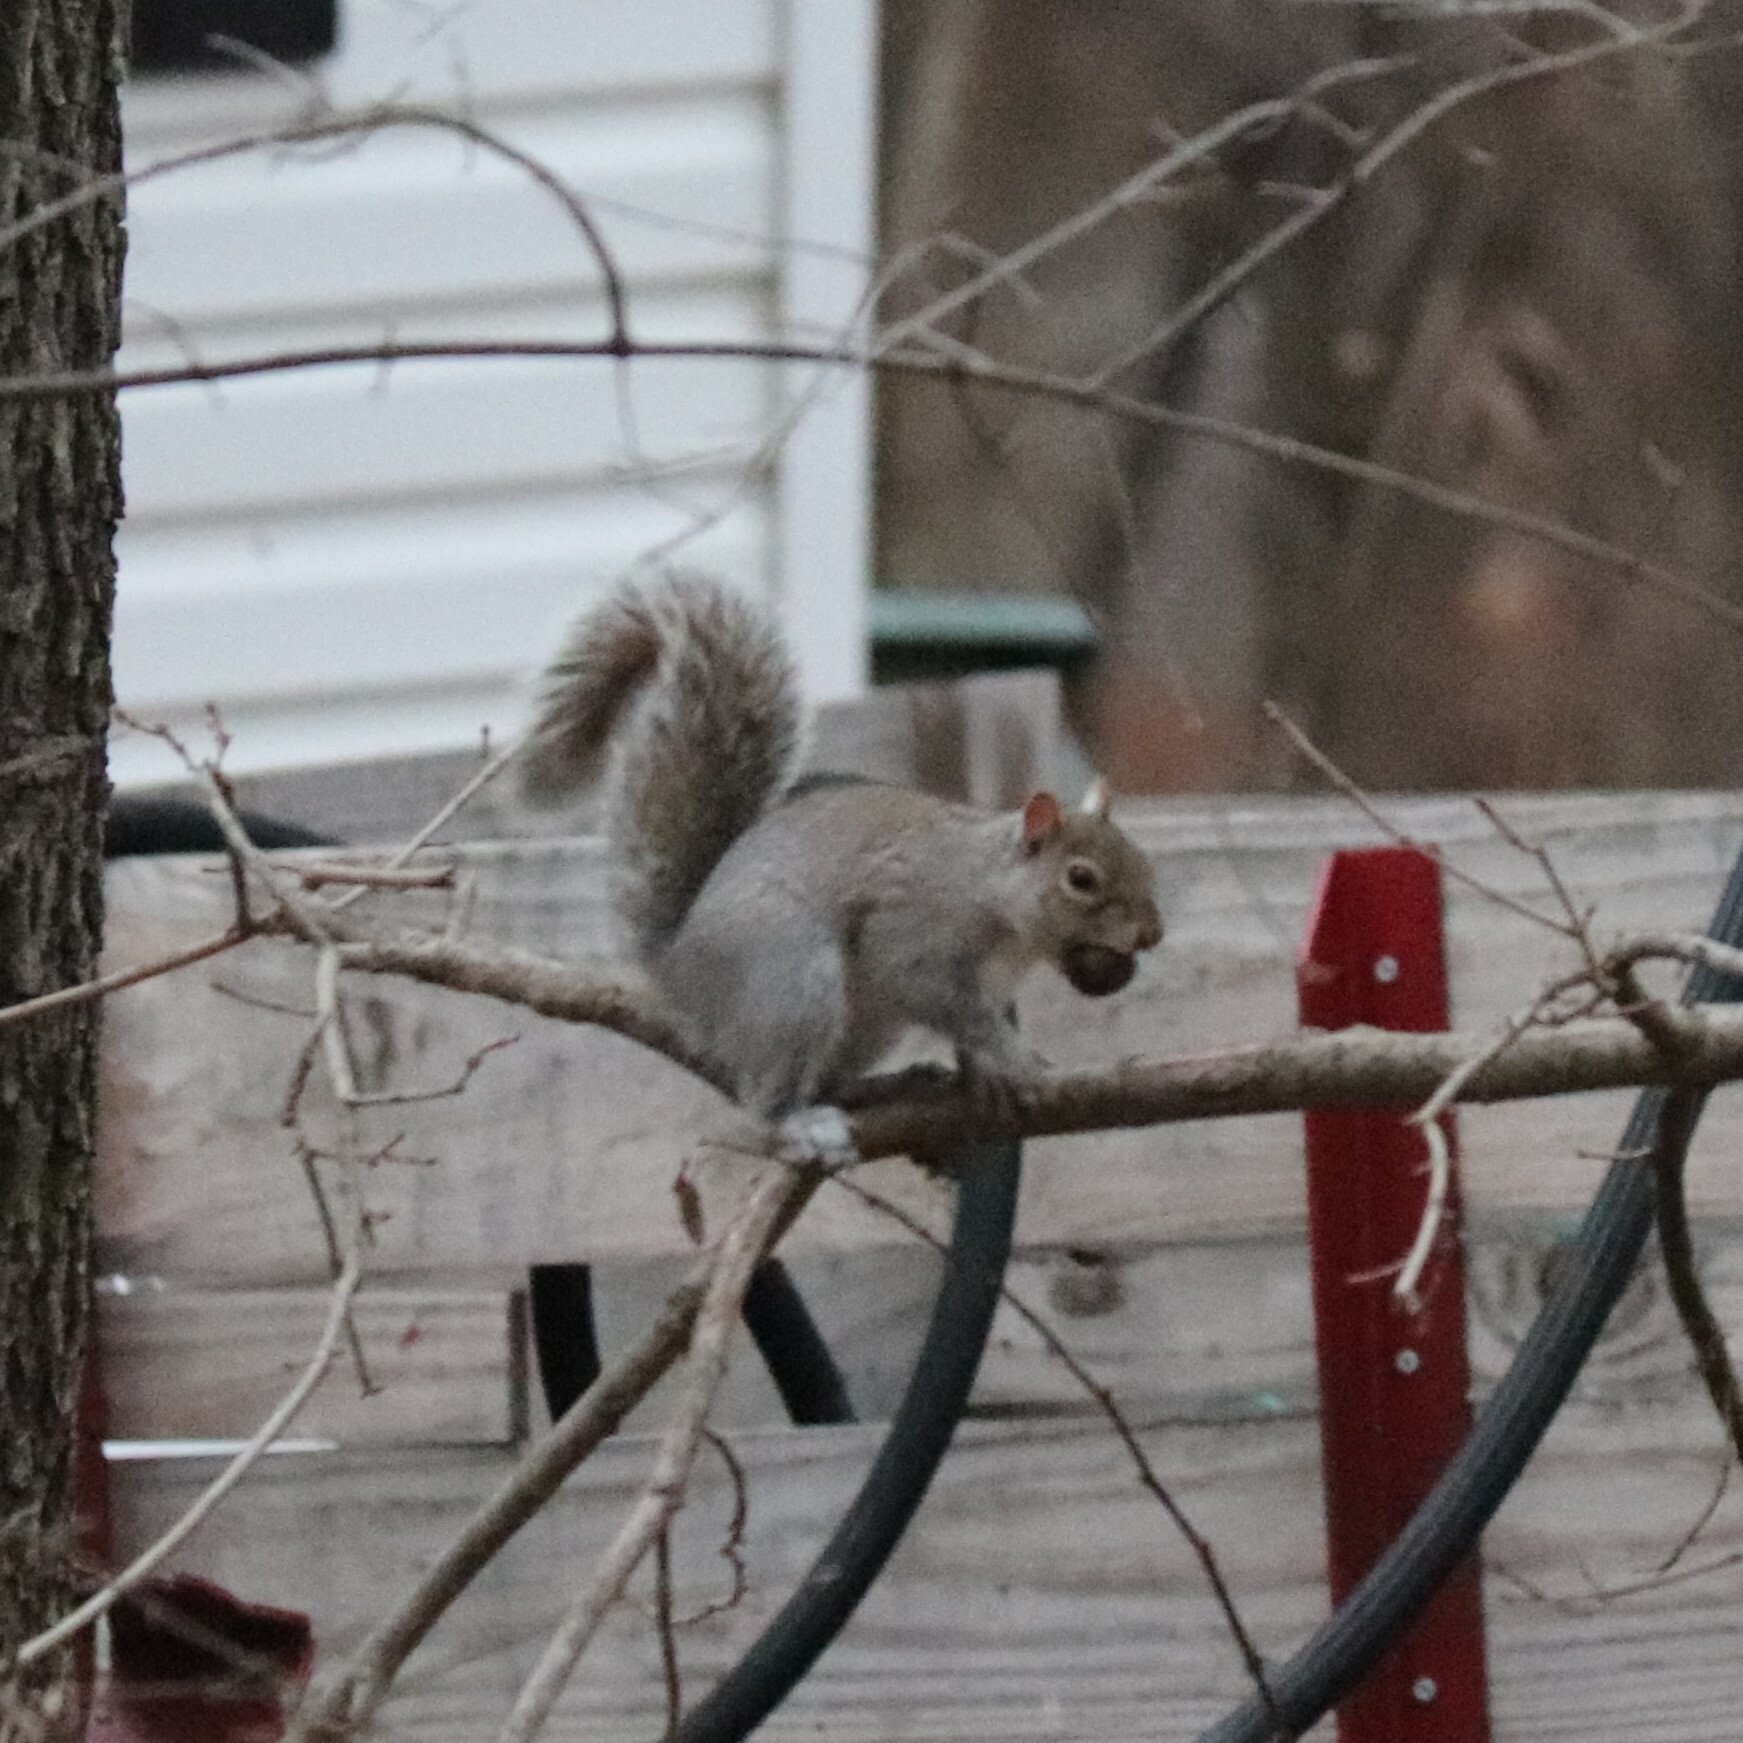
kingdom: Animalia
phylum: Chordata
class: Mammalia
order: Rodentia
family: Sciuridae
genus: Sciurus
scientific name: Sciurus carolinensis
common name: Eastern gray squirrel
